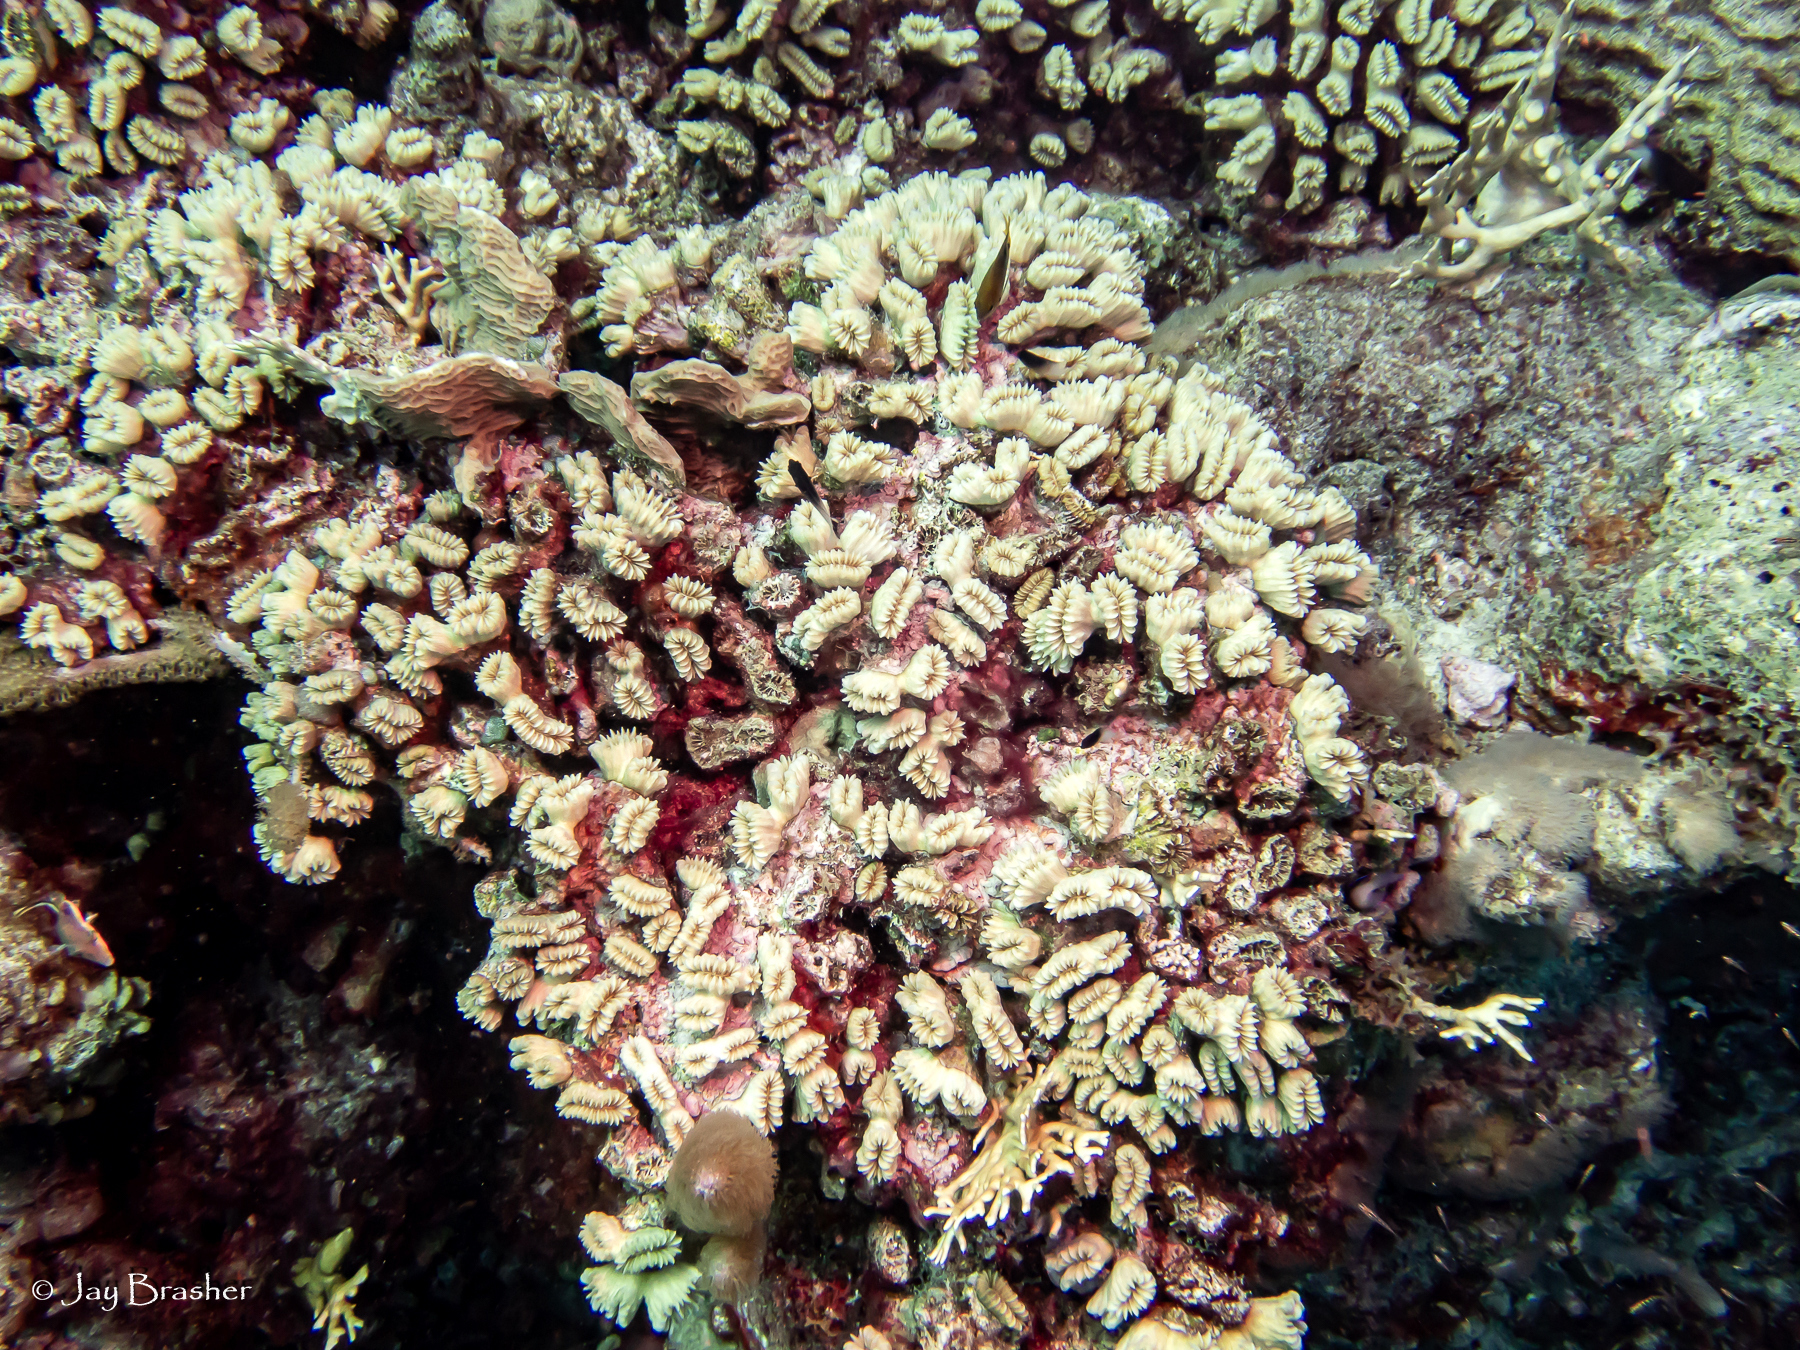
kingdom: Animalia
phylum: Cnidaria
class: Anthozoa
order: Scleractinia
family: Meandrinidae
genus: Eusmilia
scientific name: Eusmilia fastigiata
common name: Smooth flower coral
